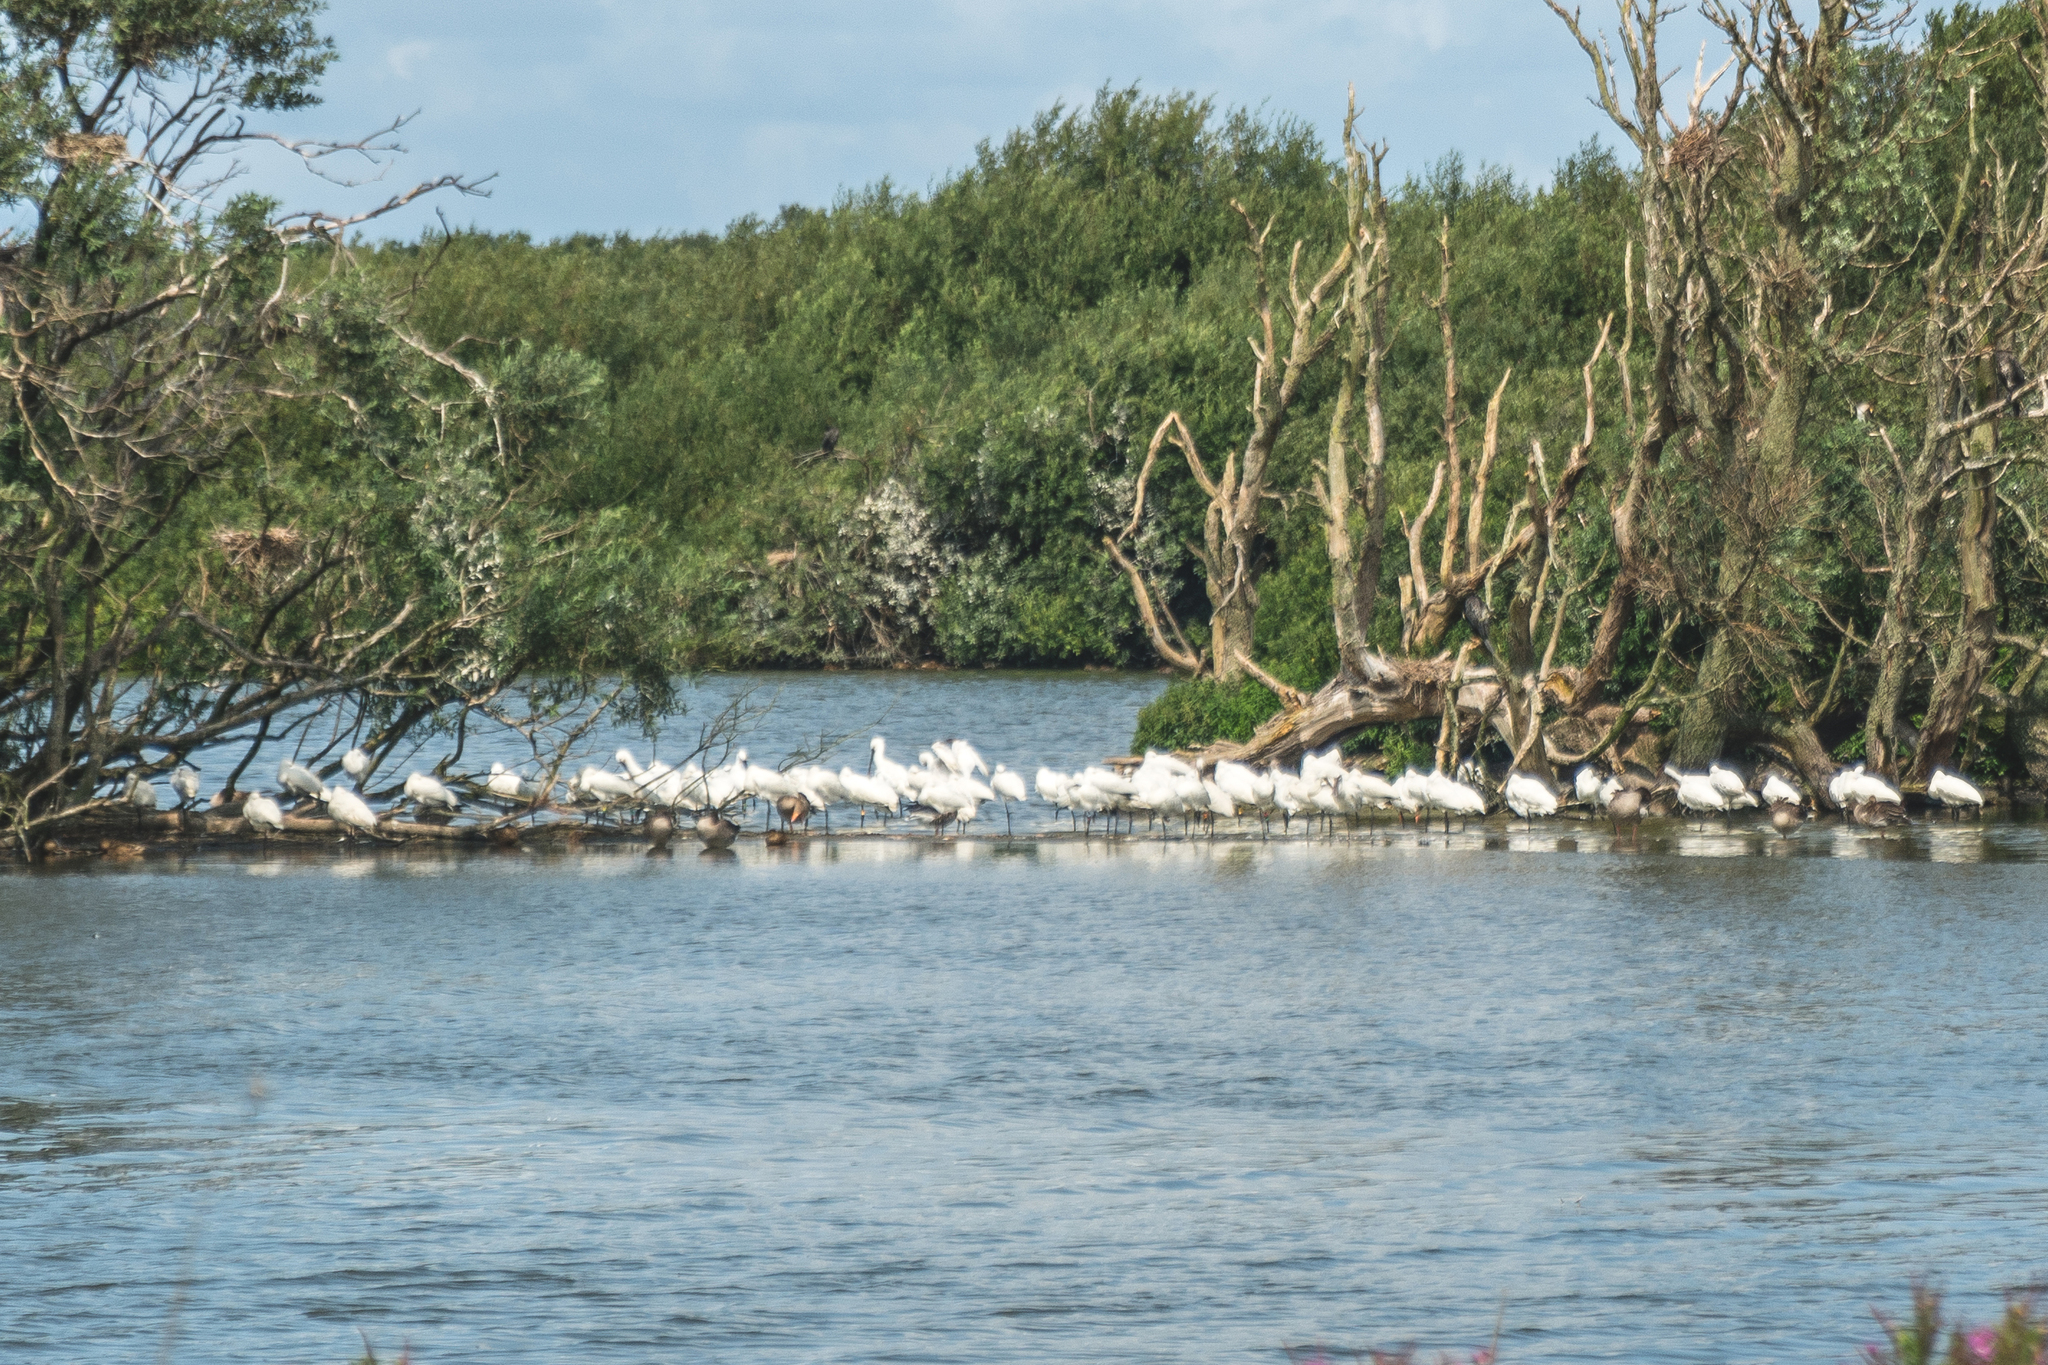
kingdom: Animalia
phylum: Chordata
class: Aves
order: Pelecaniformes
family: Threskiornithidae
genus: Platalea
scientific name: Platalea leucorodia
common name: Eurasian spoonbill
